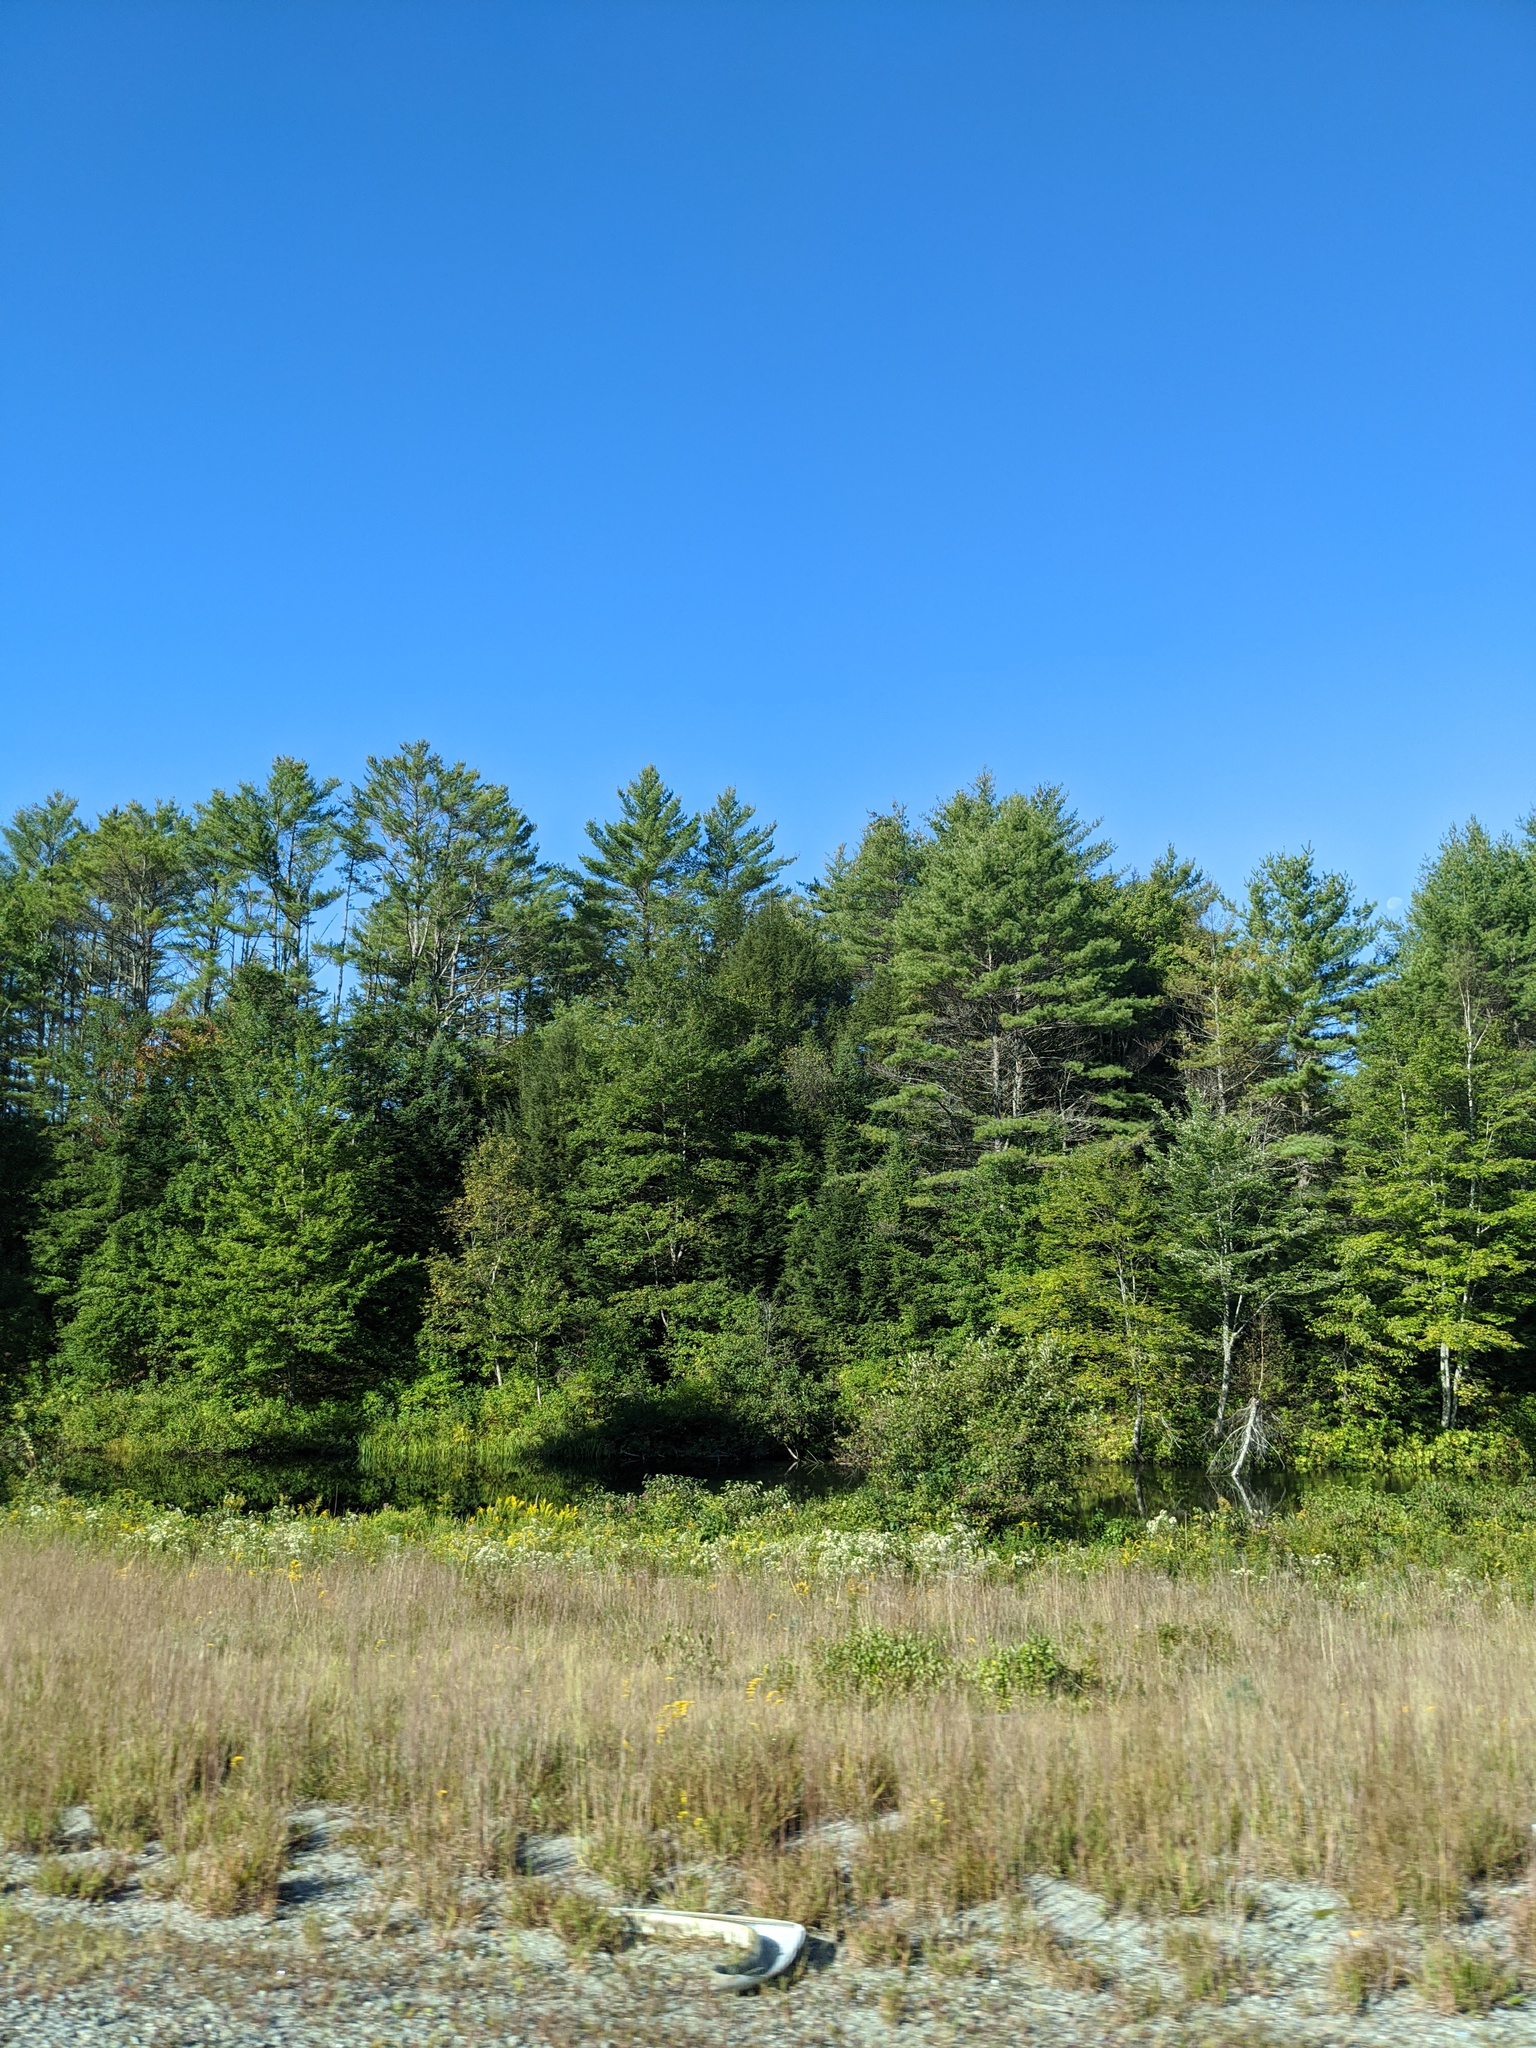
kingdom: Plantae
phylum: Tracheophyta
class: Pinopsida
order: Pinales
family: Pinaceae
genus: Pinus
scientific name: Pinus strobus
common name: Weymouth pine
